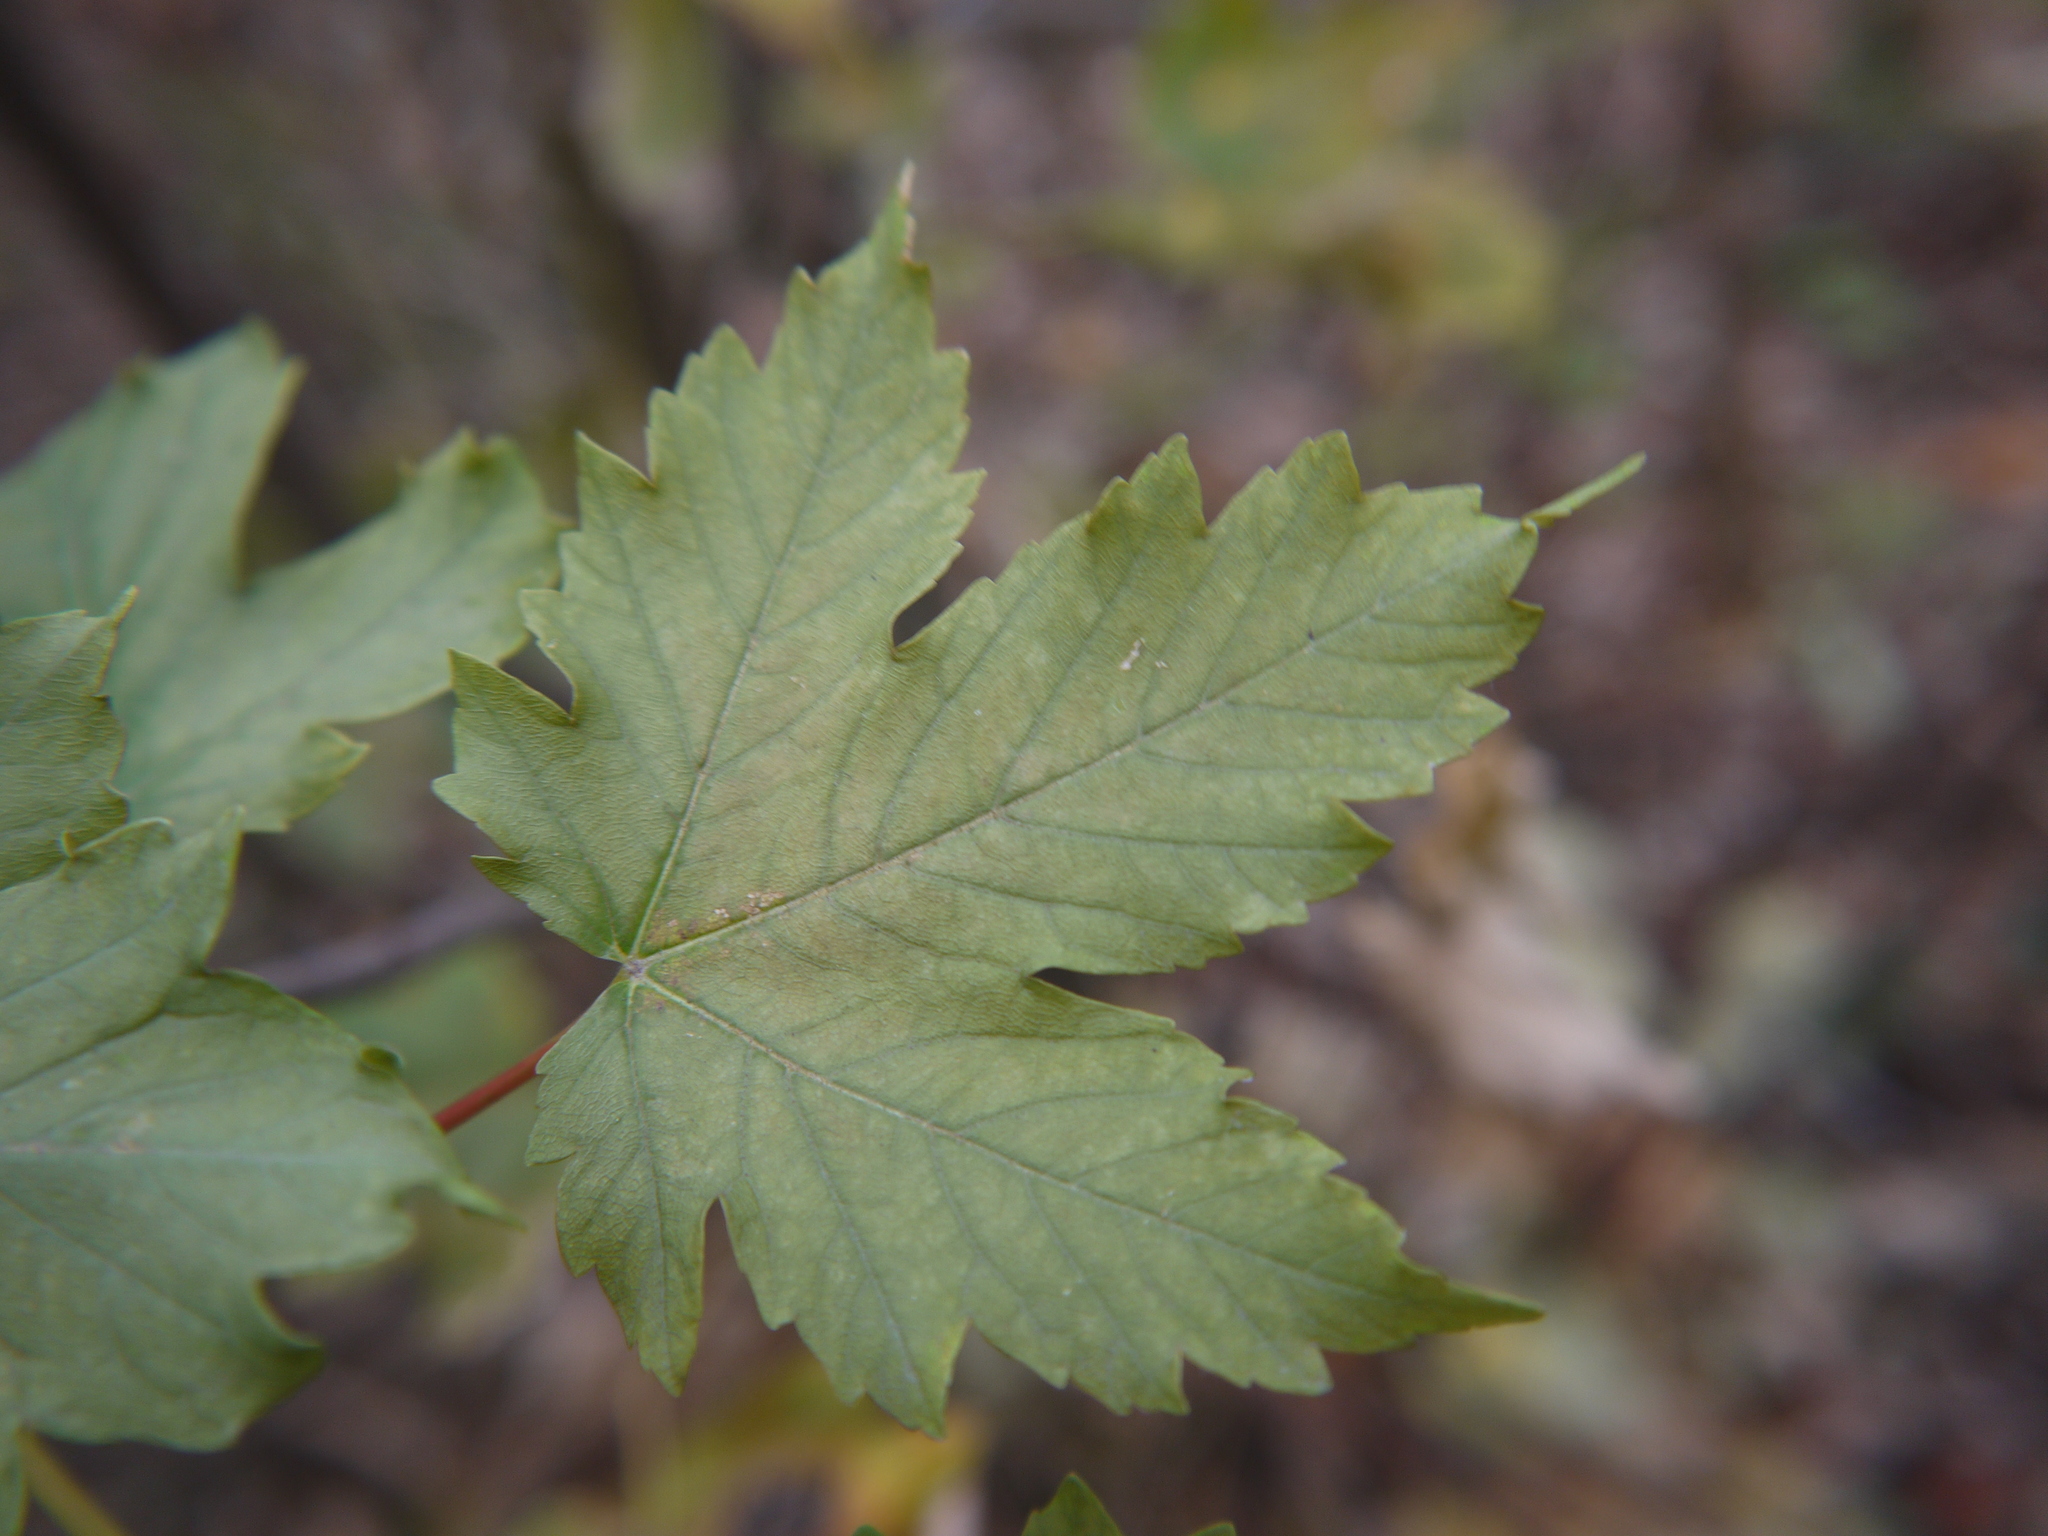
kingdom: Plantae
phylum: Tracheophyta
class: Magnoliopsida
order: Sapindales
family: Sapindaceae
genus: Acer
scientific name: Acer pseudoplatanus
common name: Sycamore
